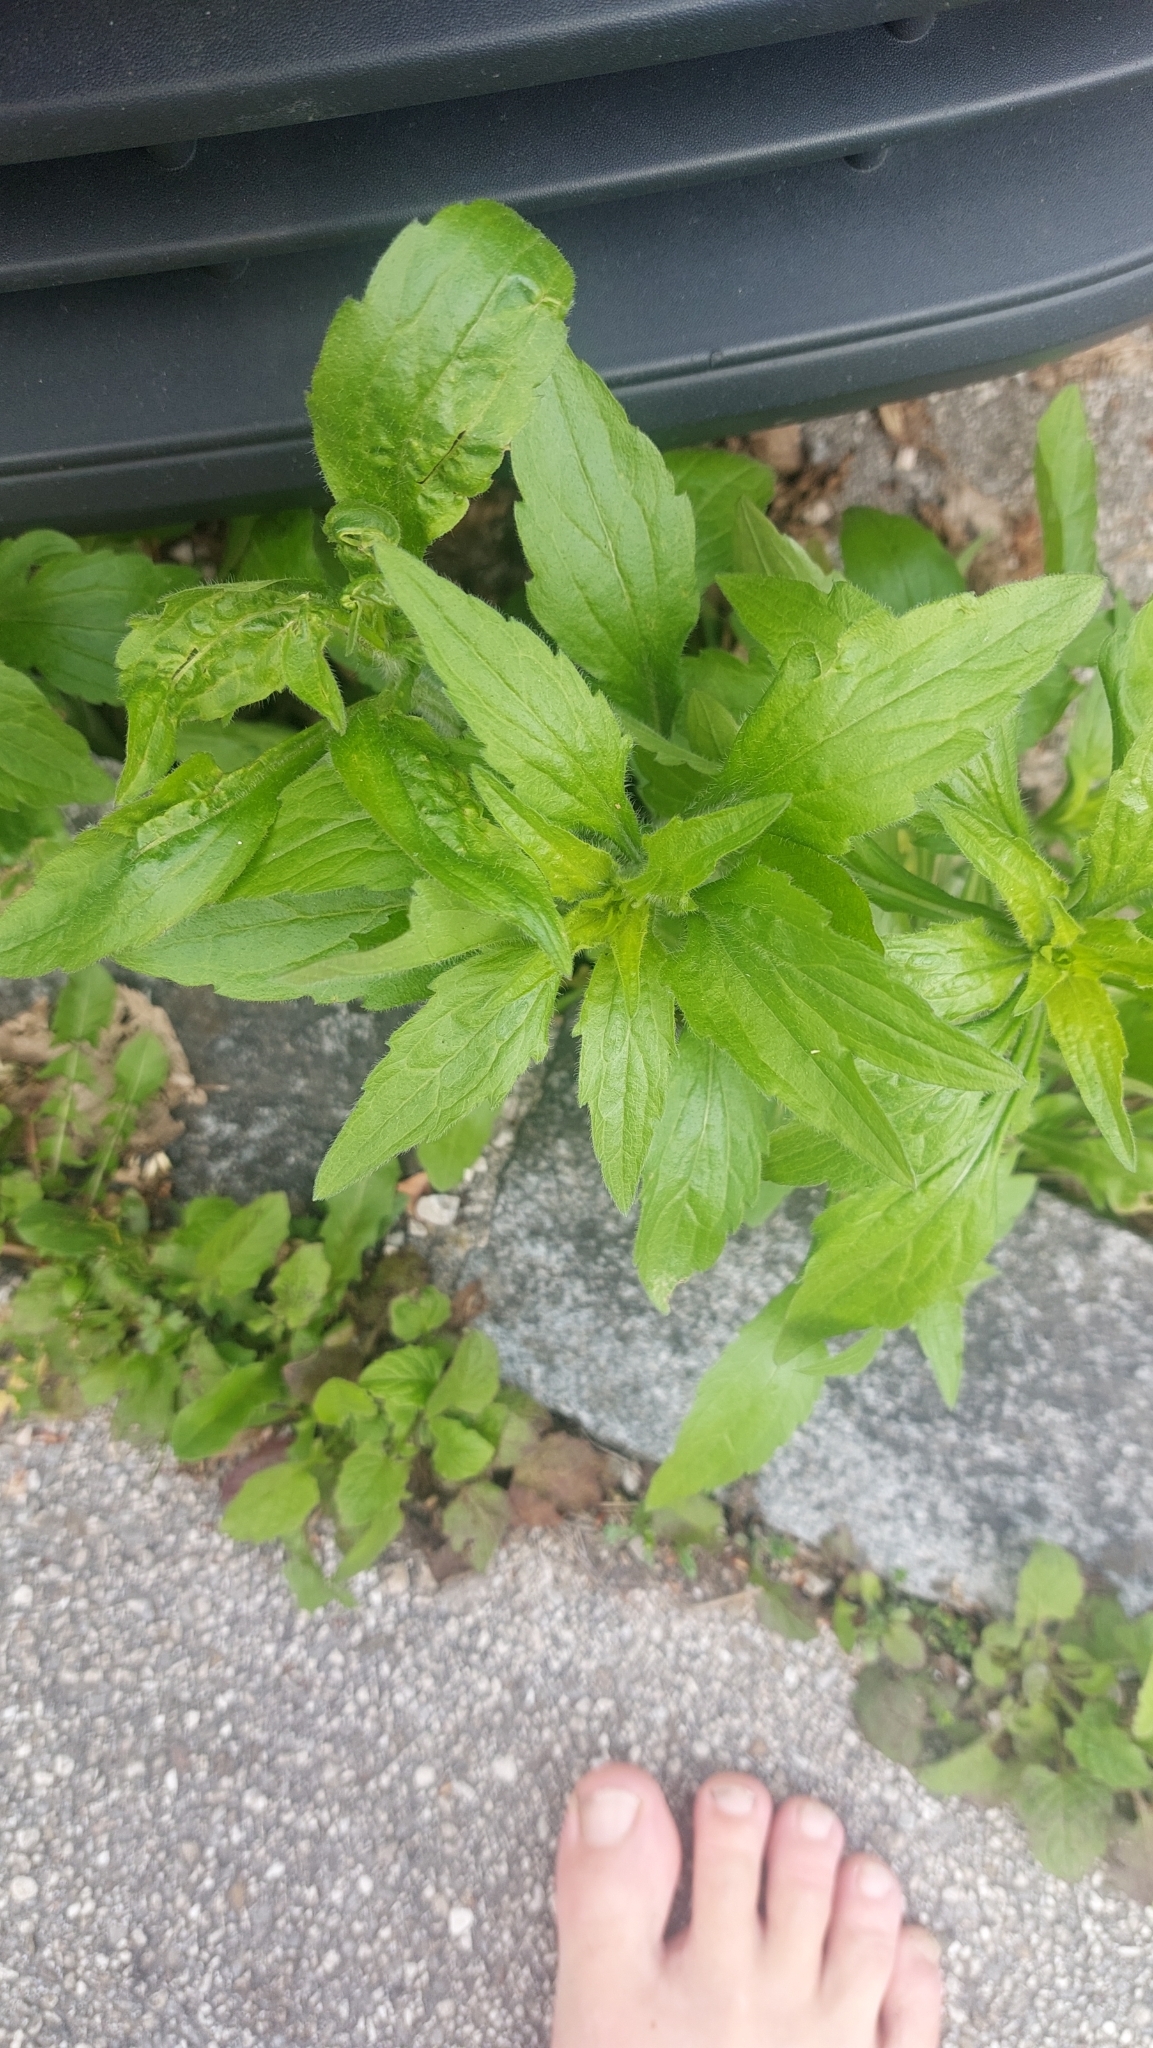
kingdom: Plantae
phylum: Tracheophyta
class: Magnoliopsida
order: Asterales
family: Asteraceae
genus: Erigeron
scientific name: Erigeron annuus
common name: Tall fleabane
